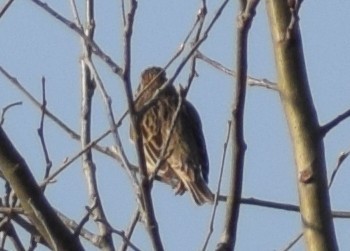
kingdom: Animalia
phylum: Chordata
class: Aves
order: Passeriformes
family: Emberizidae
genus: Emberiza
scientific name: Emberiza calandra
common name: Corn bunting
